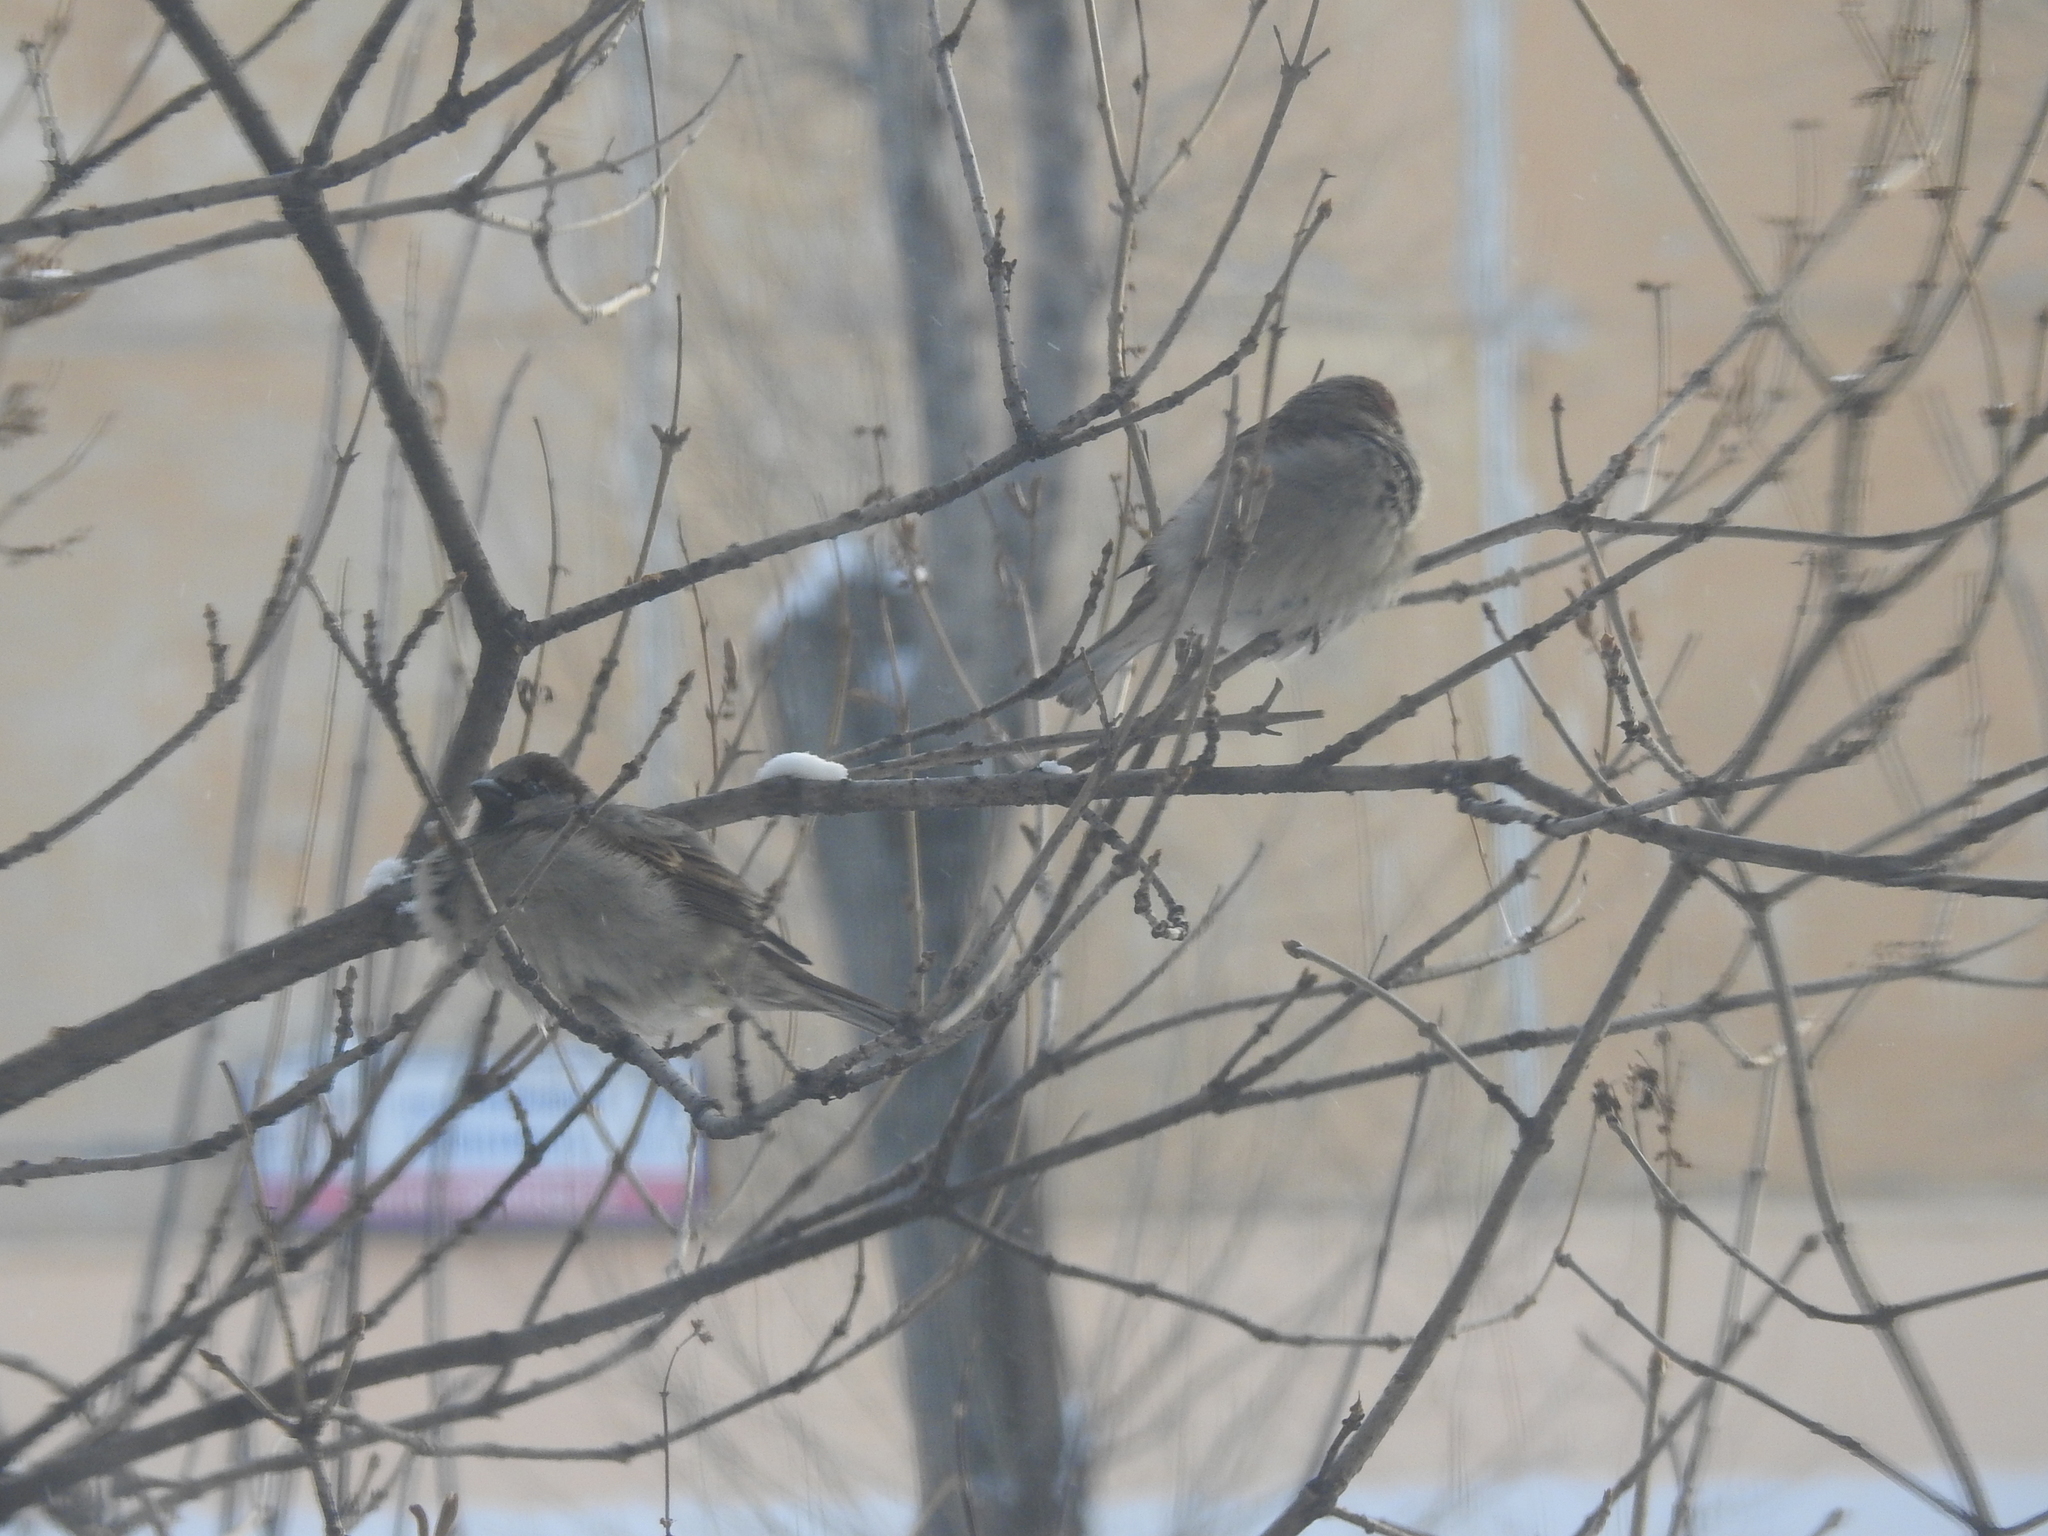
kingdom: Animalia
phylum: Chordata
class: Aves
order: Passeriformes
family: Passeridae
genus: Passer
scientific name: Passer domesticus
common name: House sparrow
